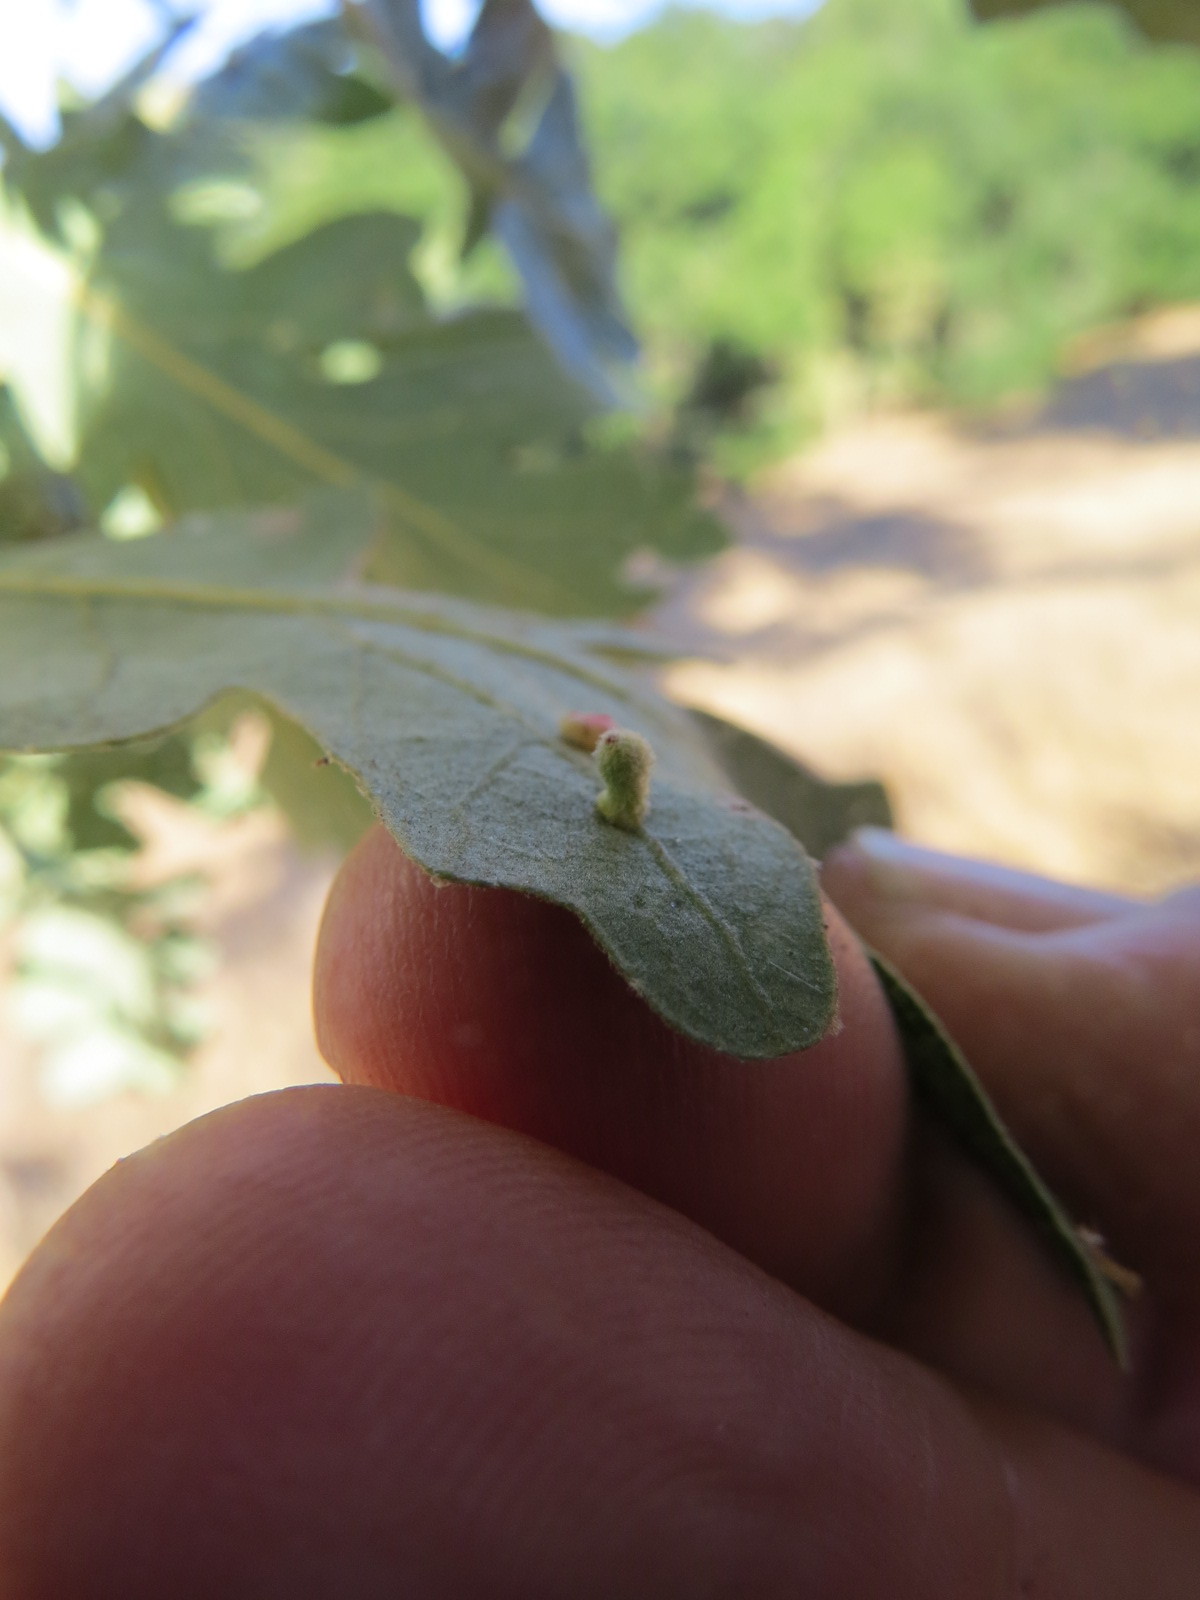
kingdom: Animalia
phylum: Arthropoda
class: Insecta
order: Hymenoptera
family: Cynipidae
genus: Atrusca
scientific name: Atrusca
